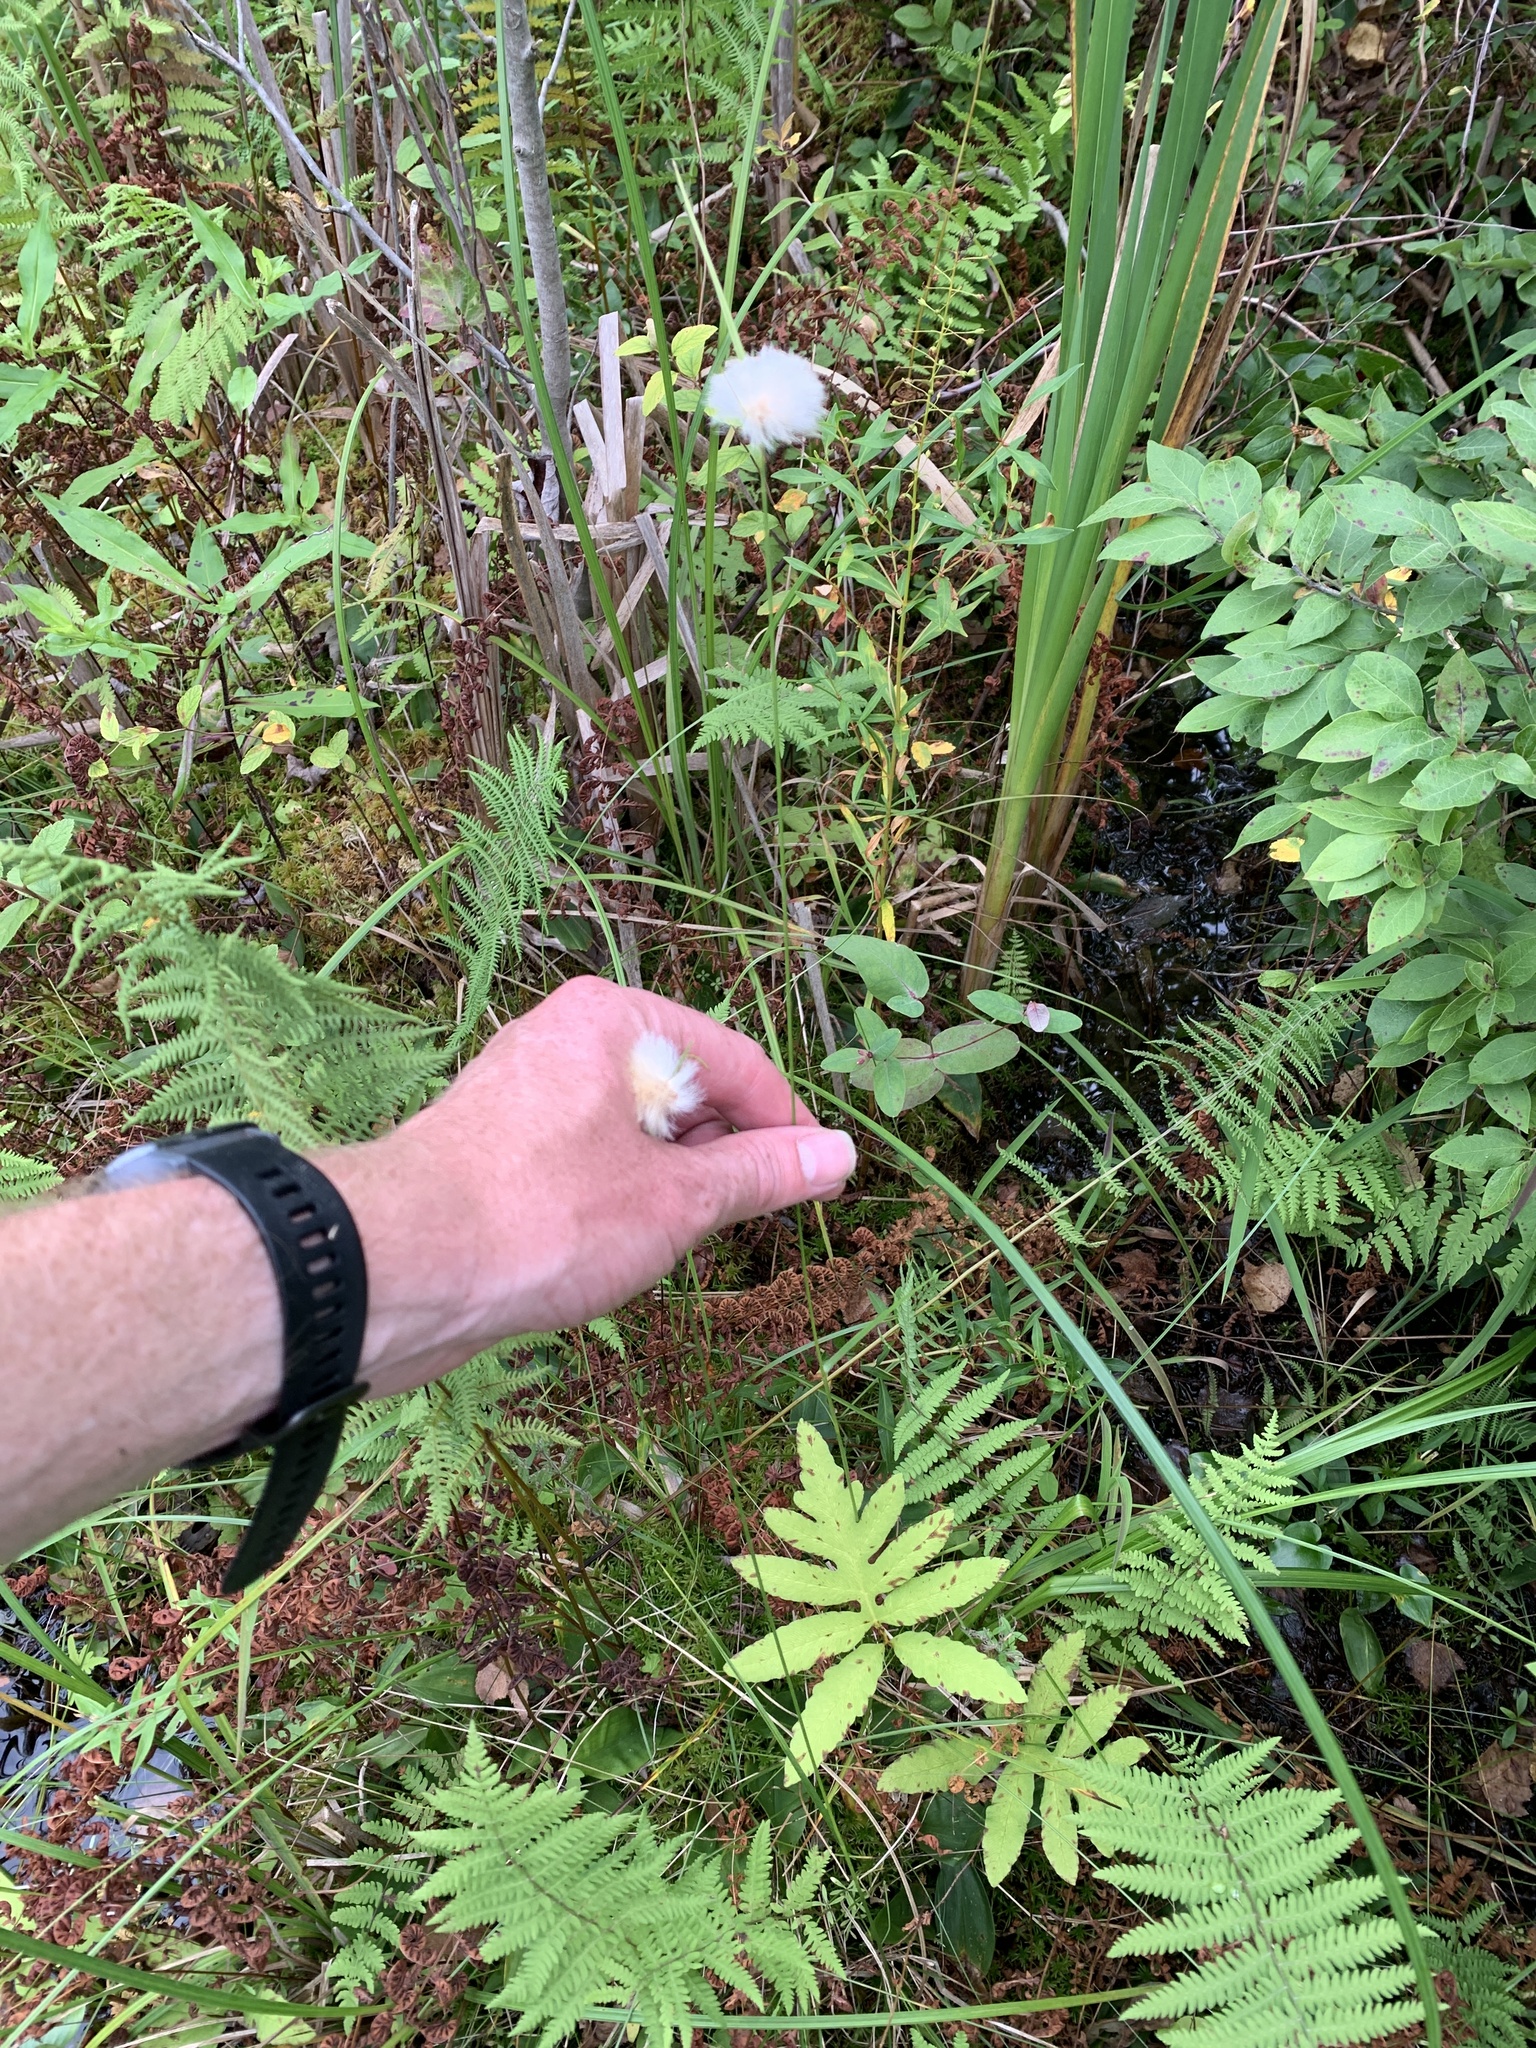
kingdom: Plantae
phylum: Tracheophyta
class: Liliopsida
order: Poales
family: Cyperaceae
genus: Eriophorum
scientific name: Eriophorum virginicum
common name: Tawny cottongrass
